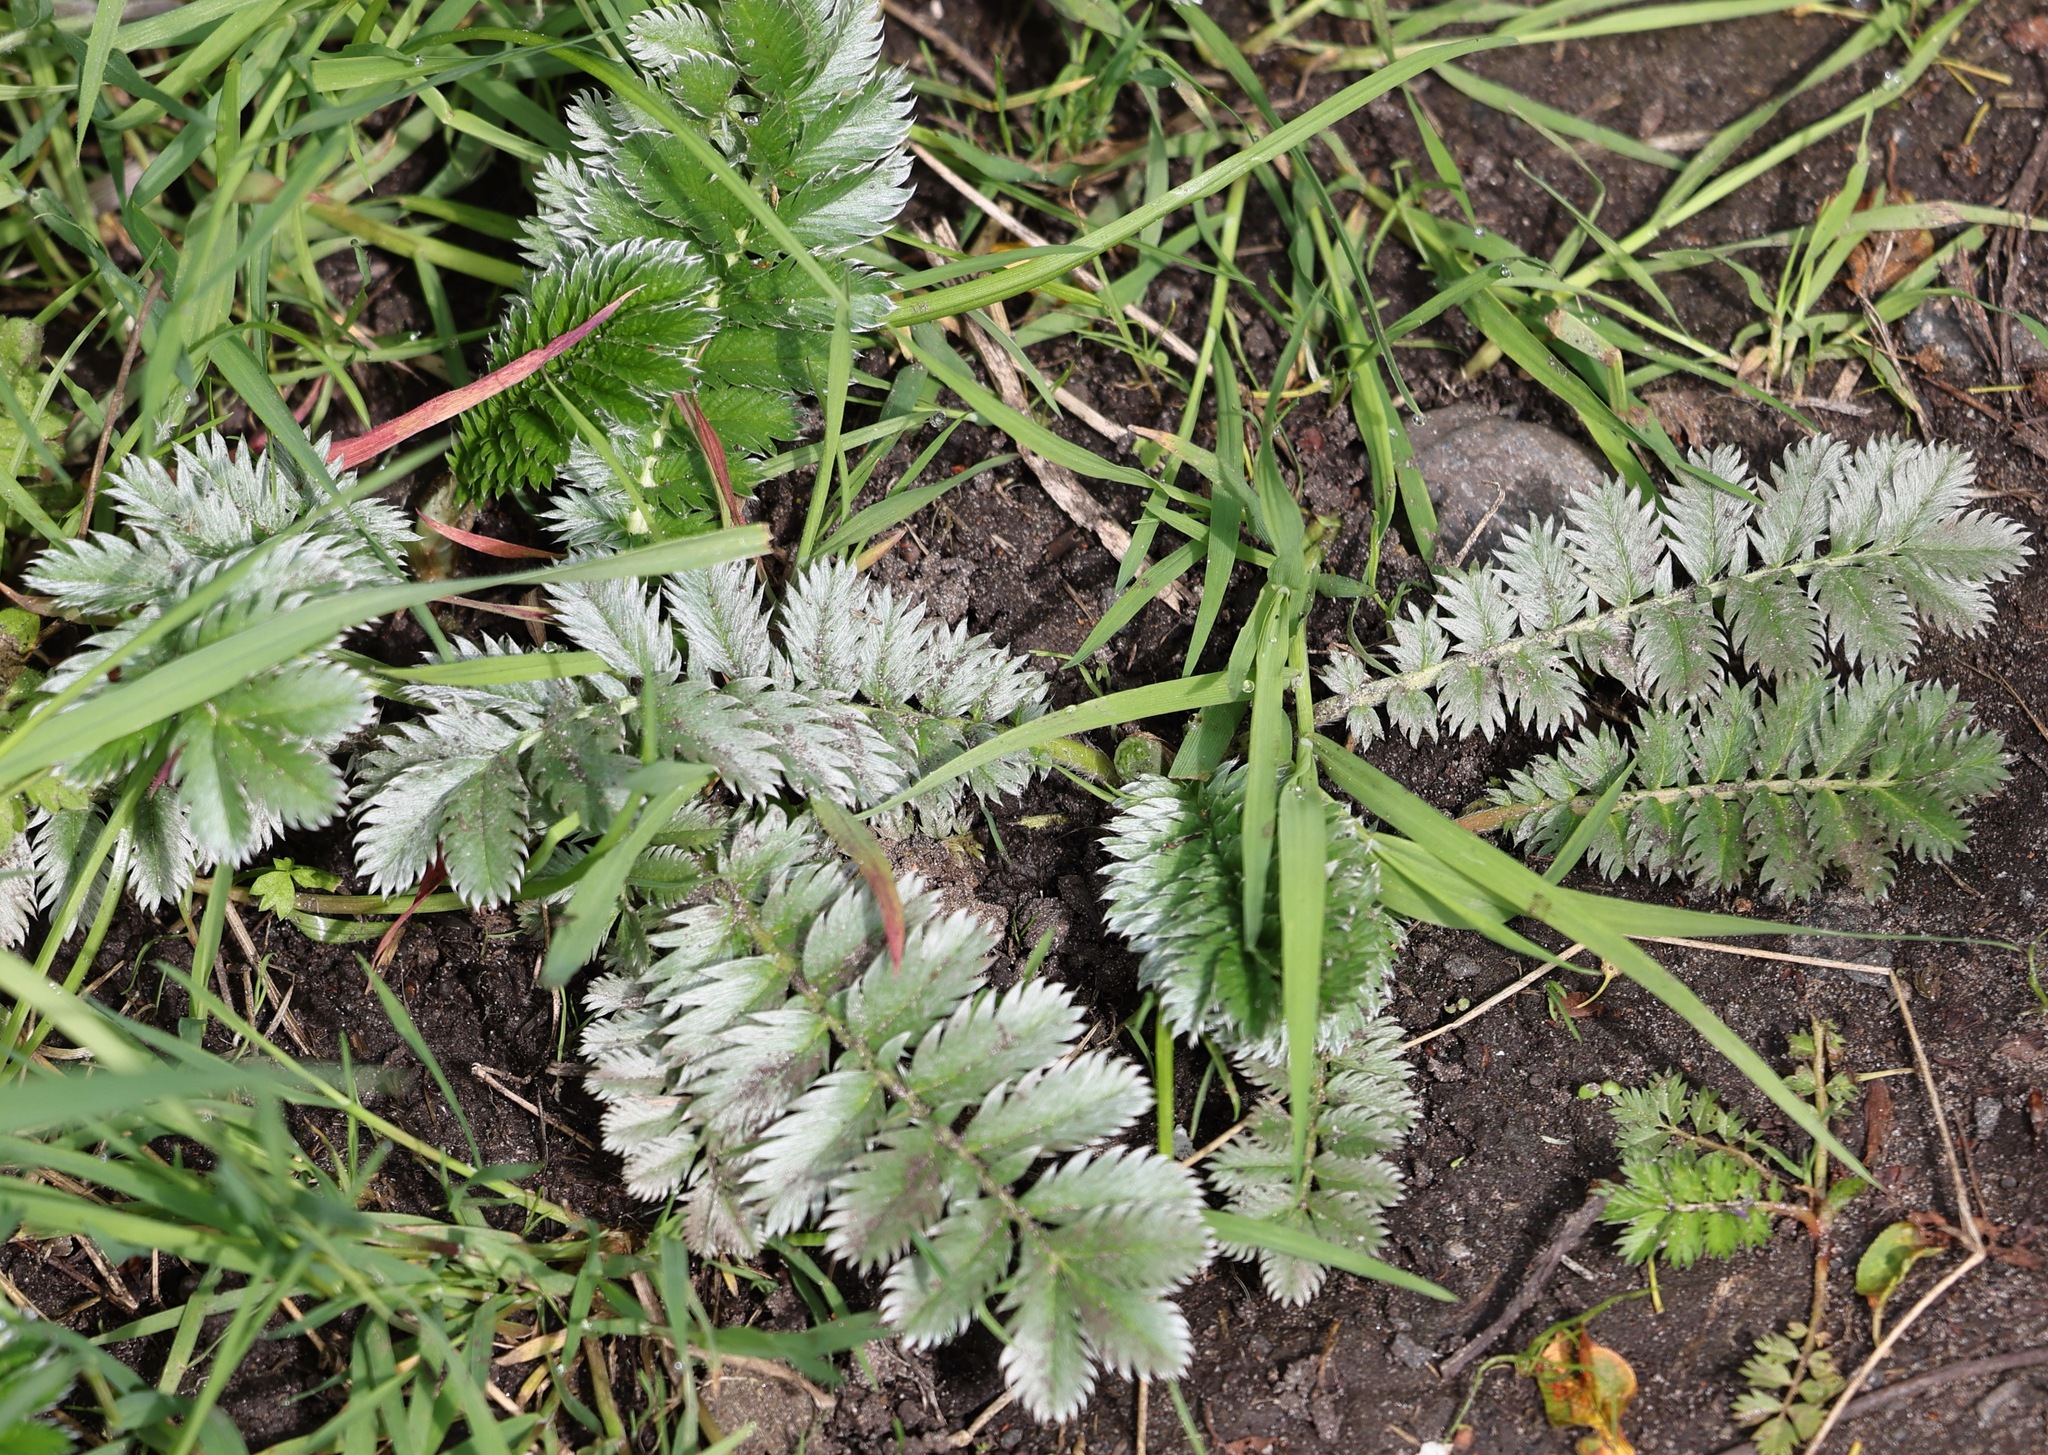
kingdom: Plantae
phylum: Tracheophyta
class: Magnoliopsida
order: Rosales
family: Rosaceae
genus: Argentina
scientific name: Argentina anserina
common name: Common silverweed
